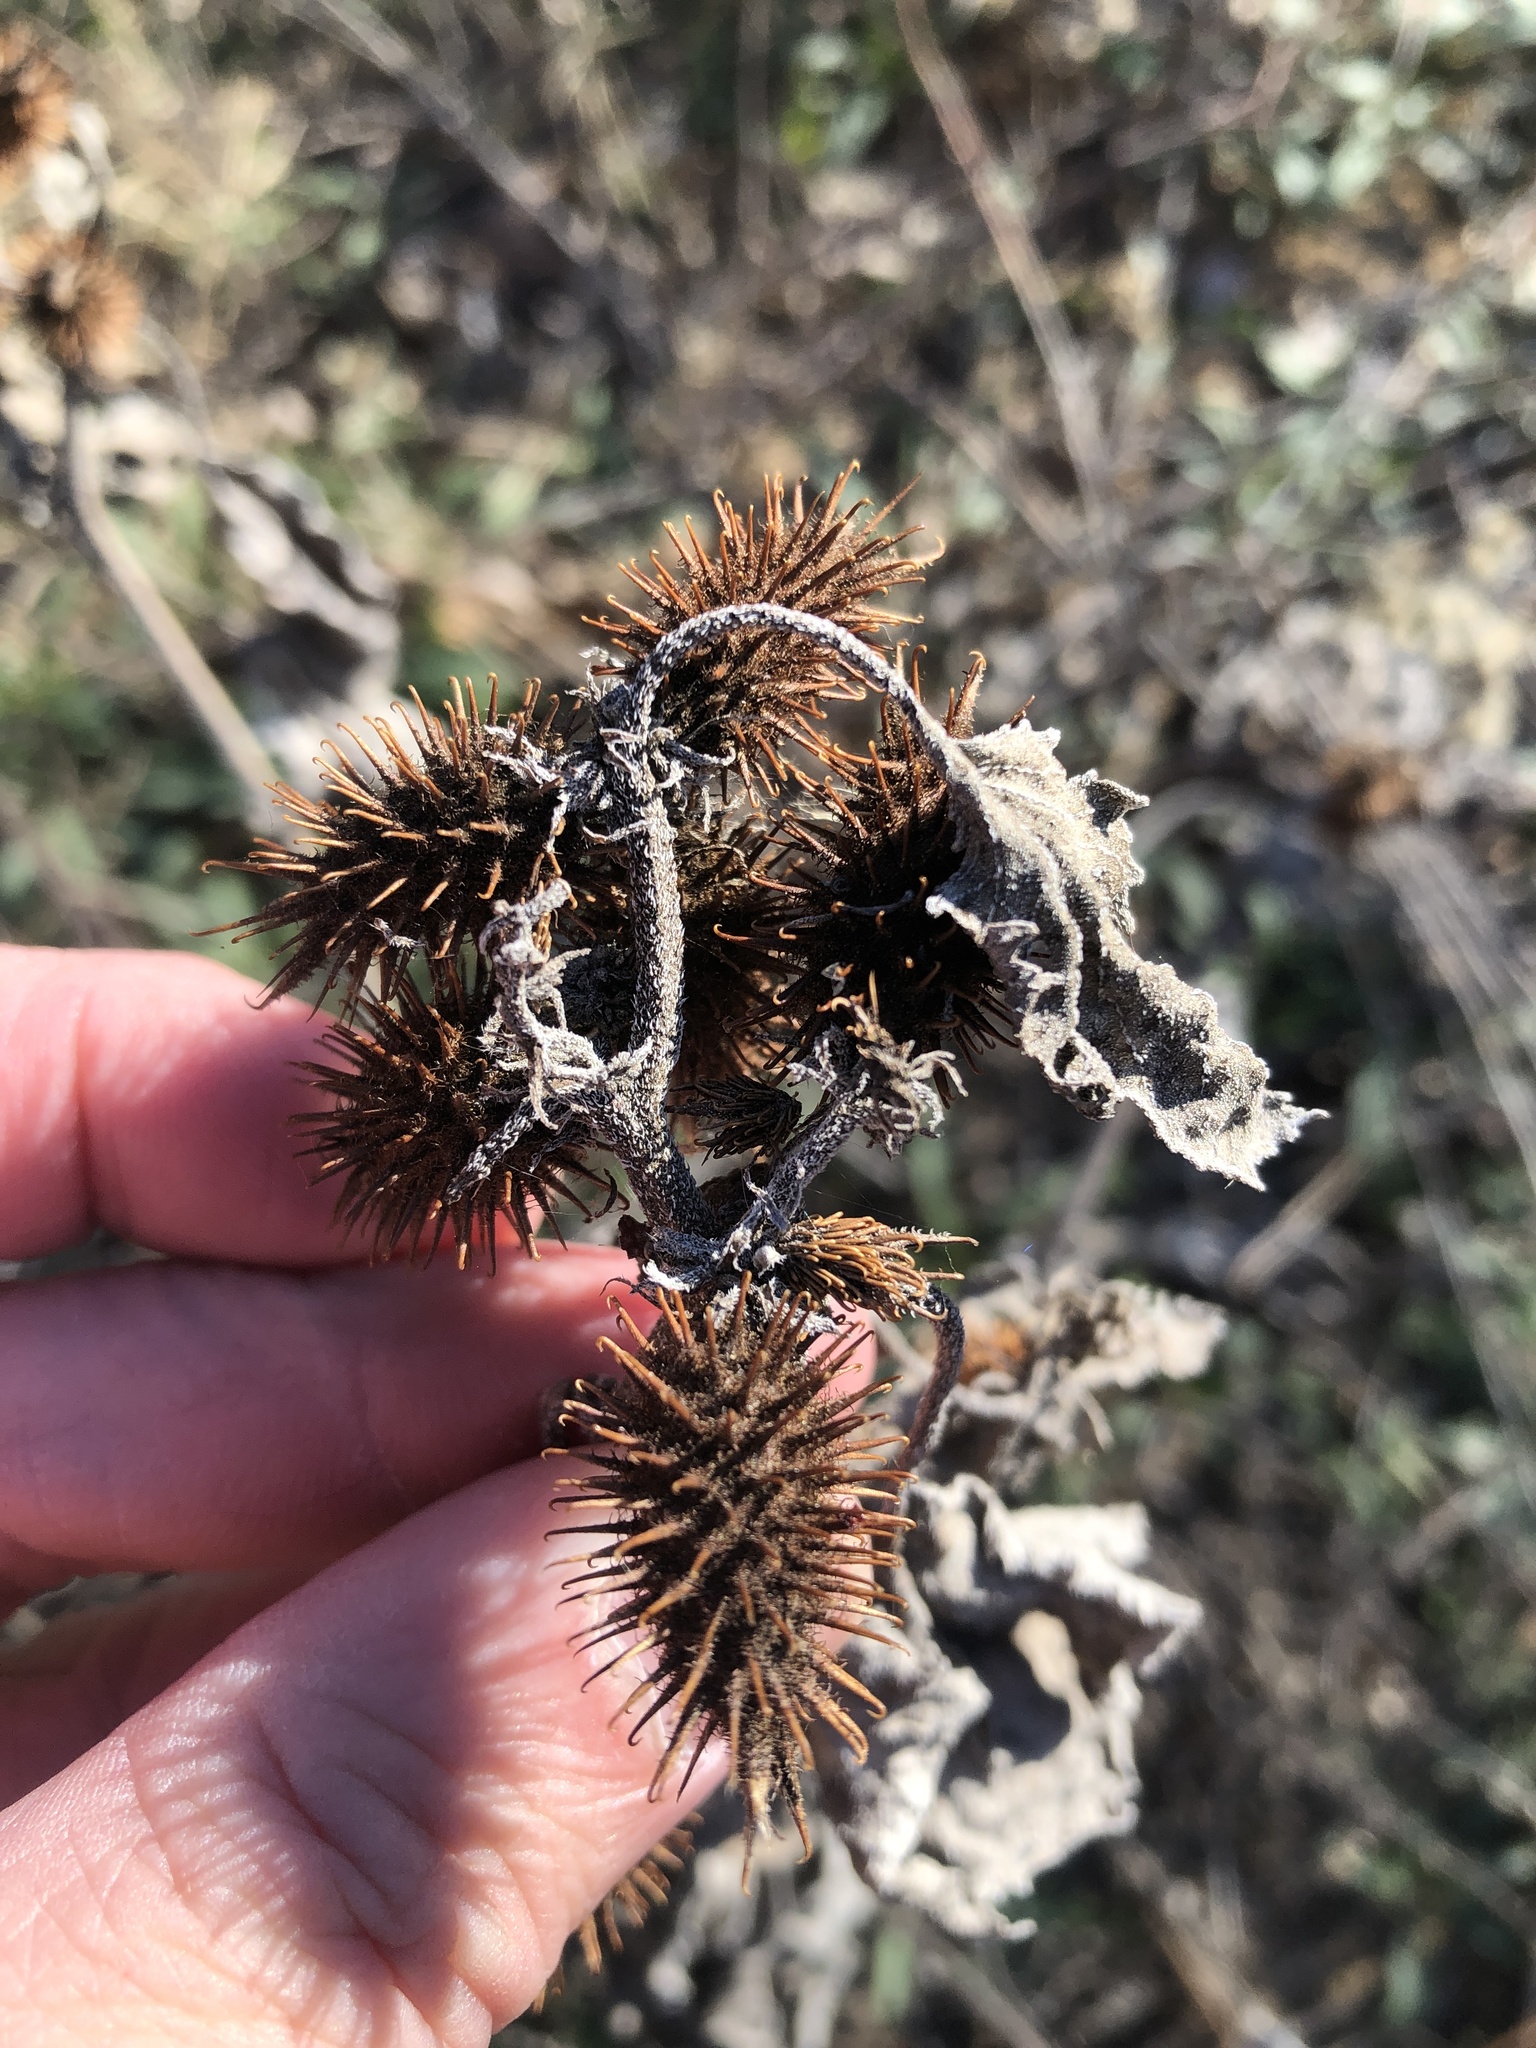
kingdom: Plantae
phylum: Tracheophyta
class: Magnoliopsida
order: Asterales
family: Asteraceae
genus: Xanthium
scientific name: Xanthium strumarium
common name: Rough cocklebur
